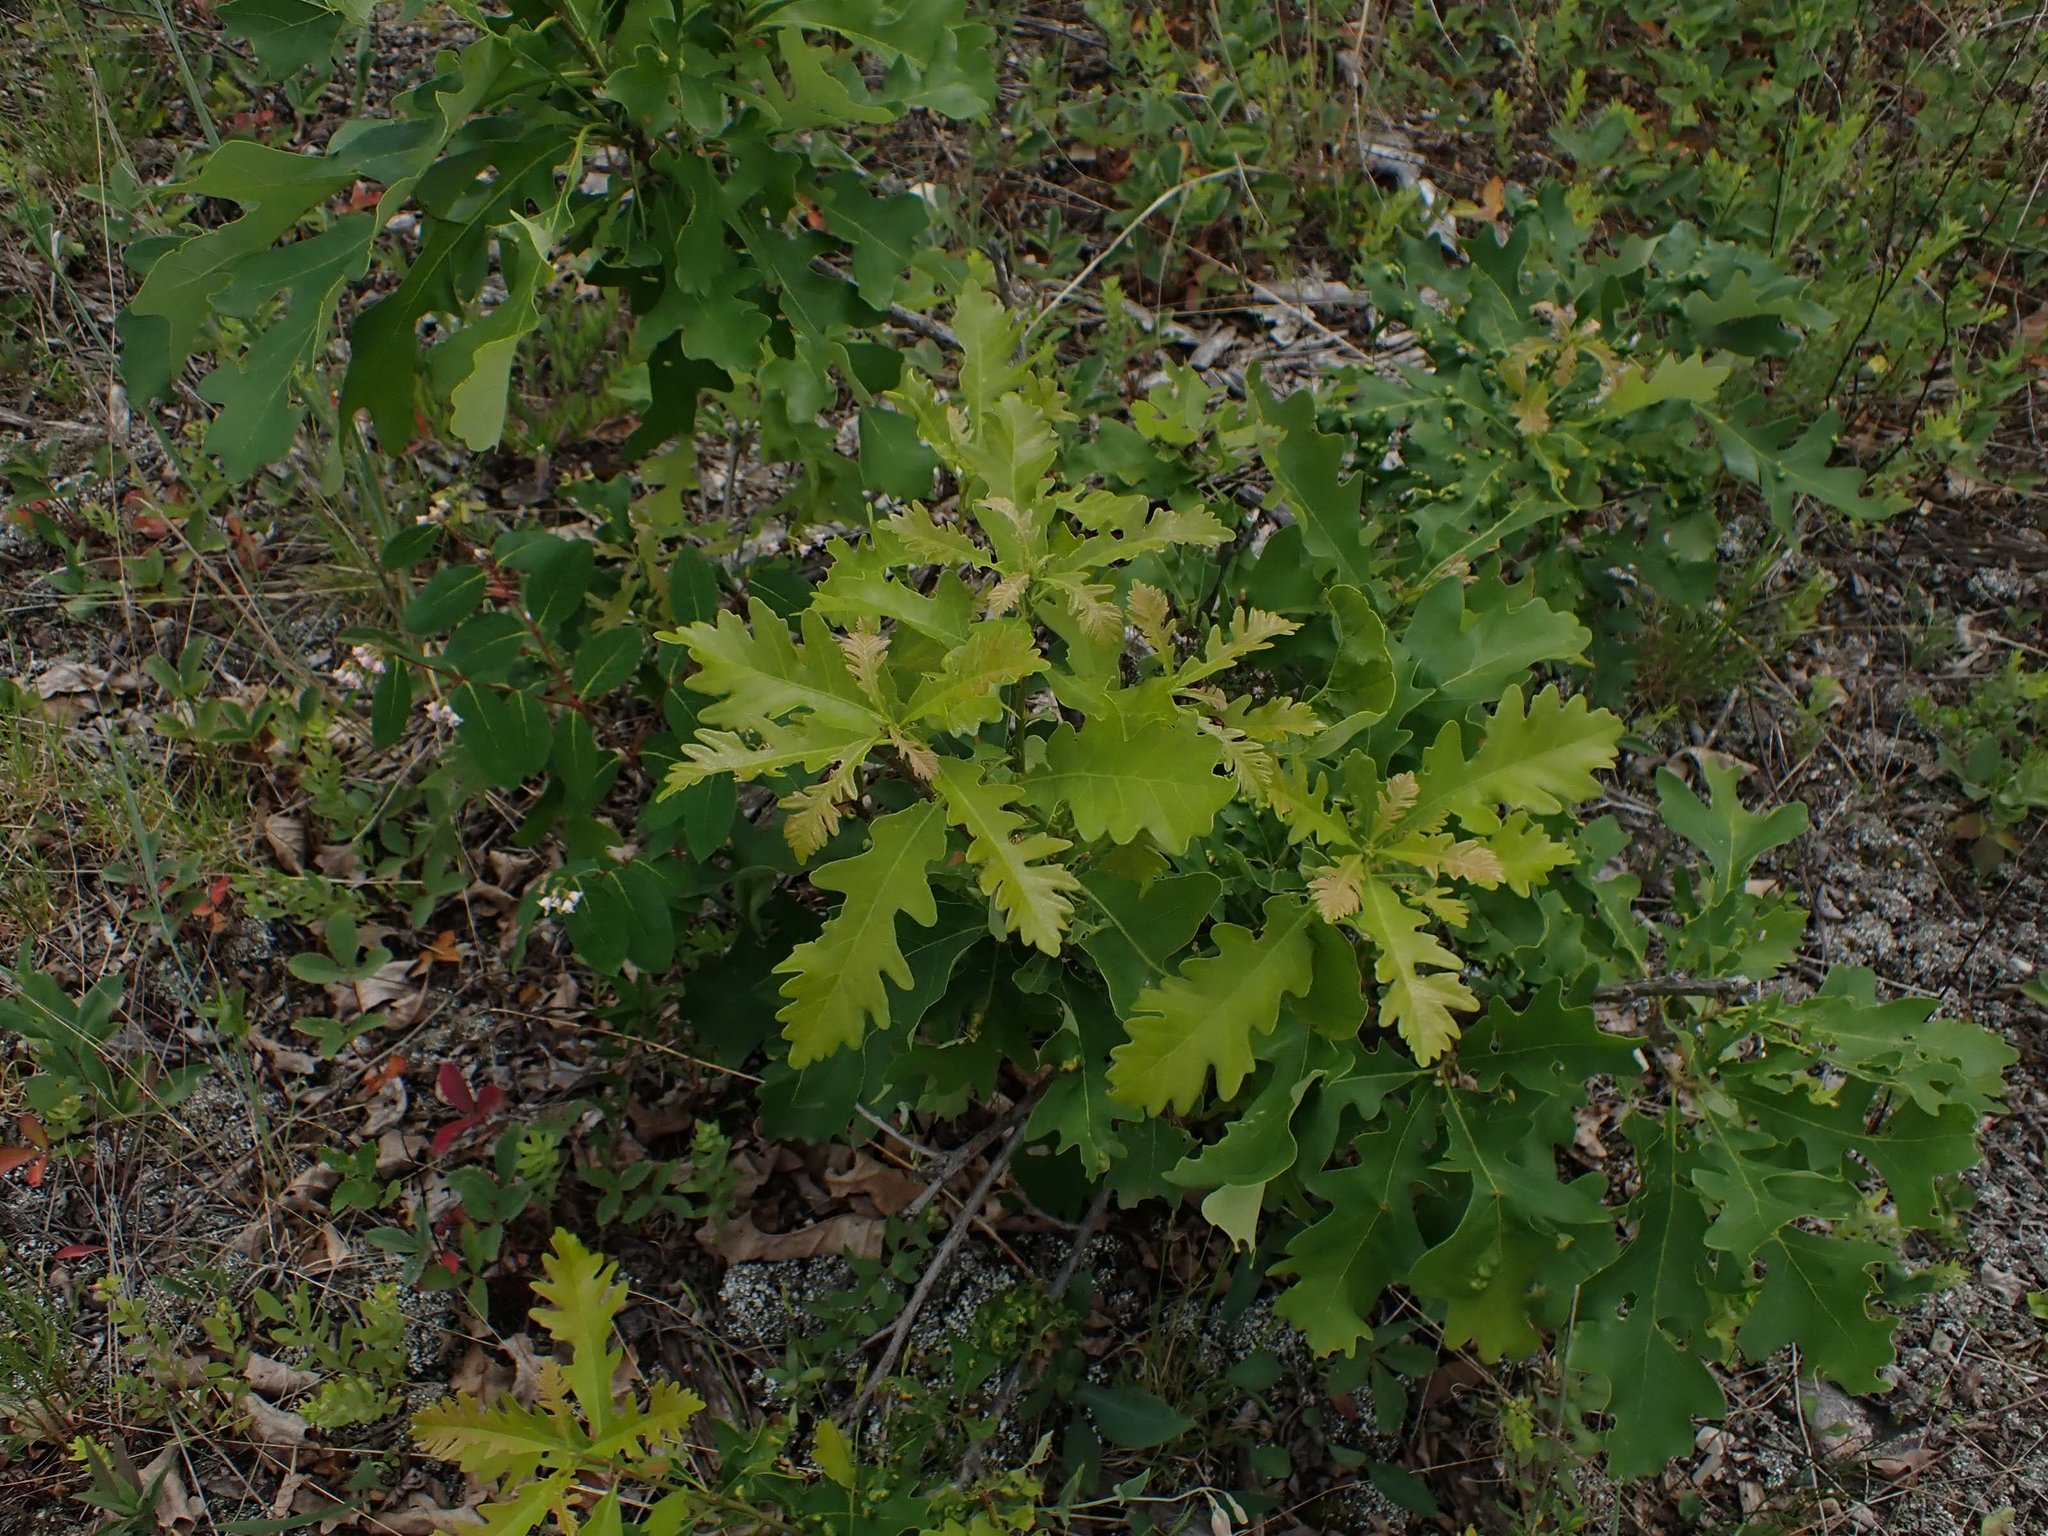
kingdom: Plantae
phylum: Tracheophyta
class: Magnoliopsida
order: Fagales
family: Fagaceae
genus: Quercus
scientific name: Quercus macrocarpa
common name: Bur oak
